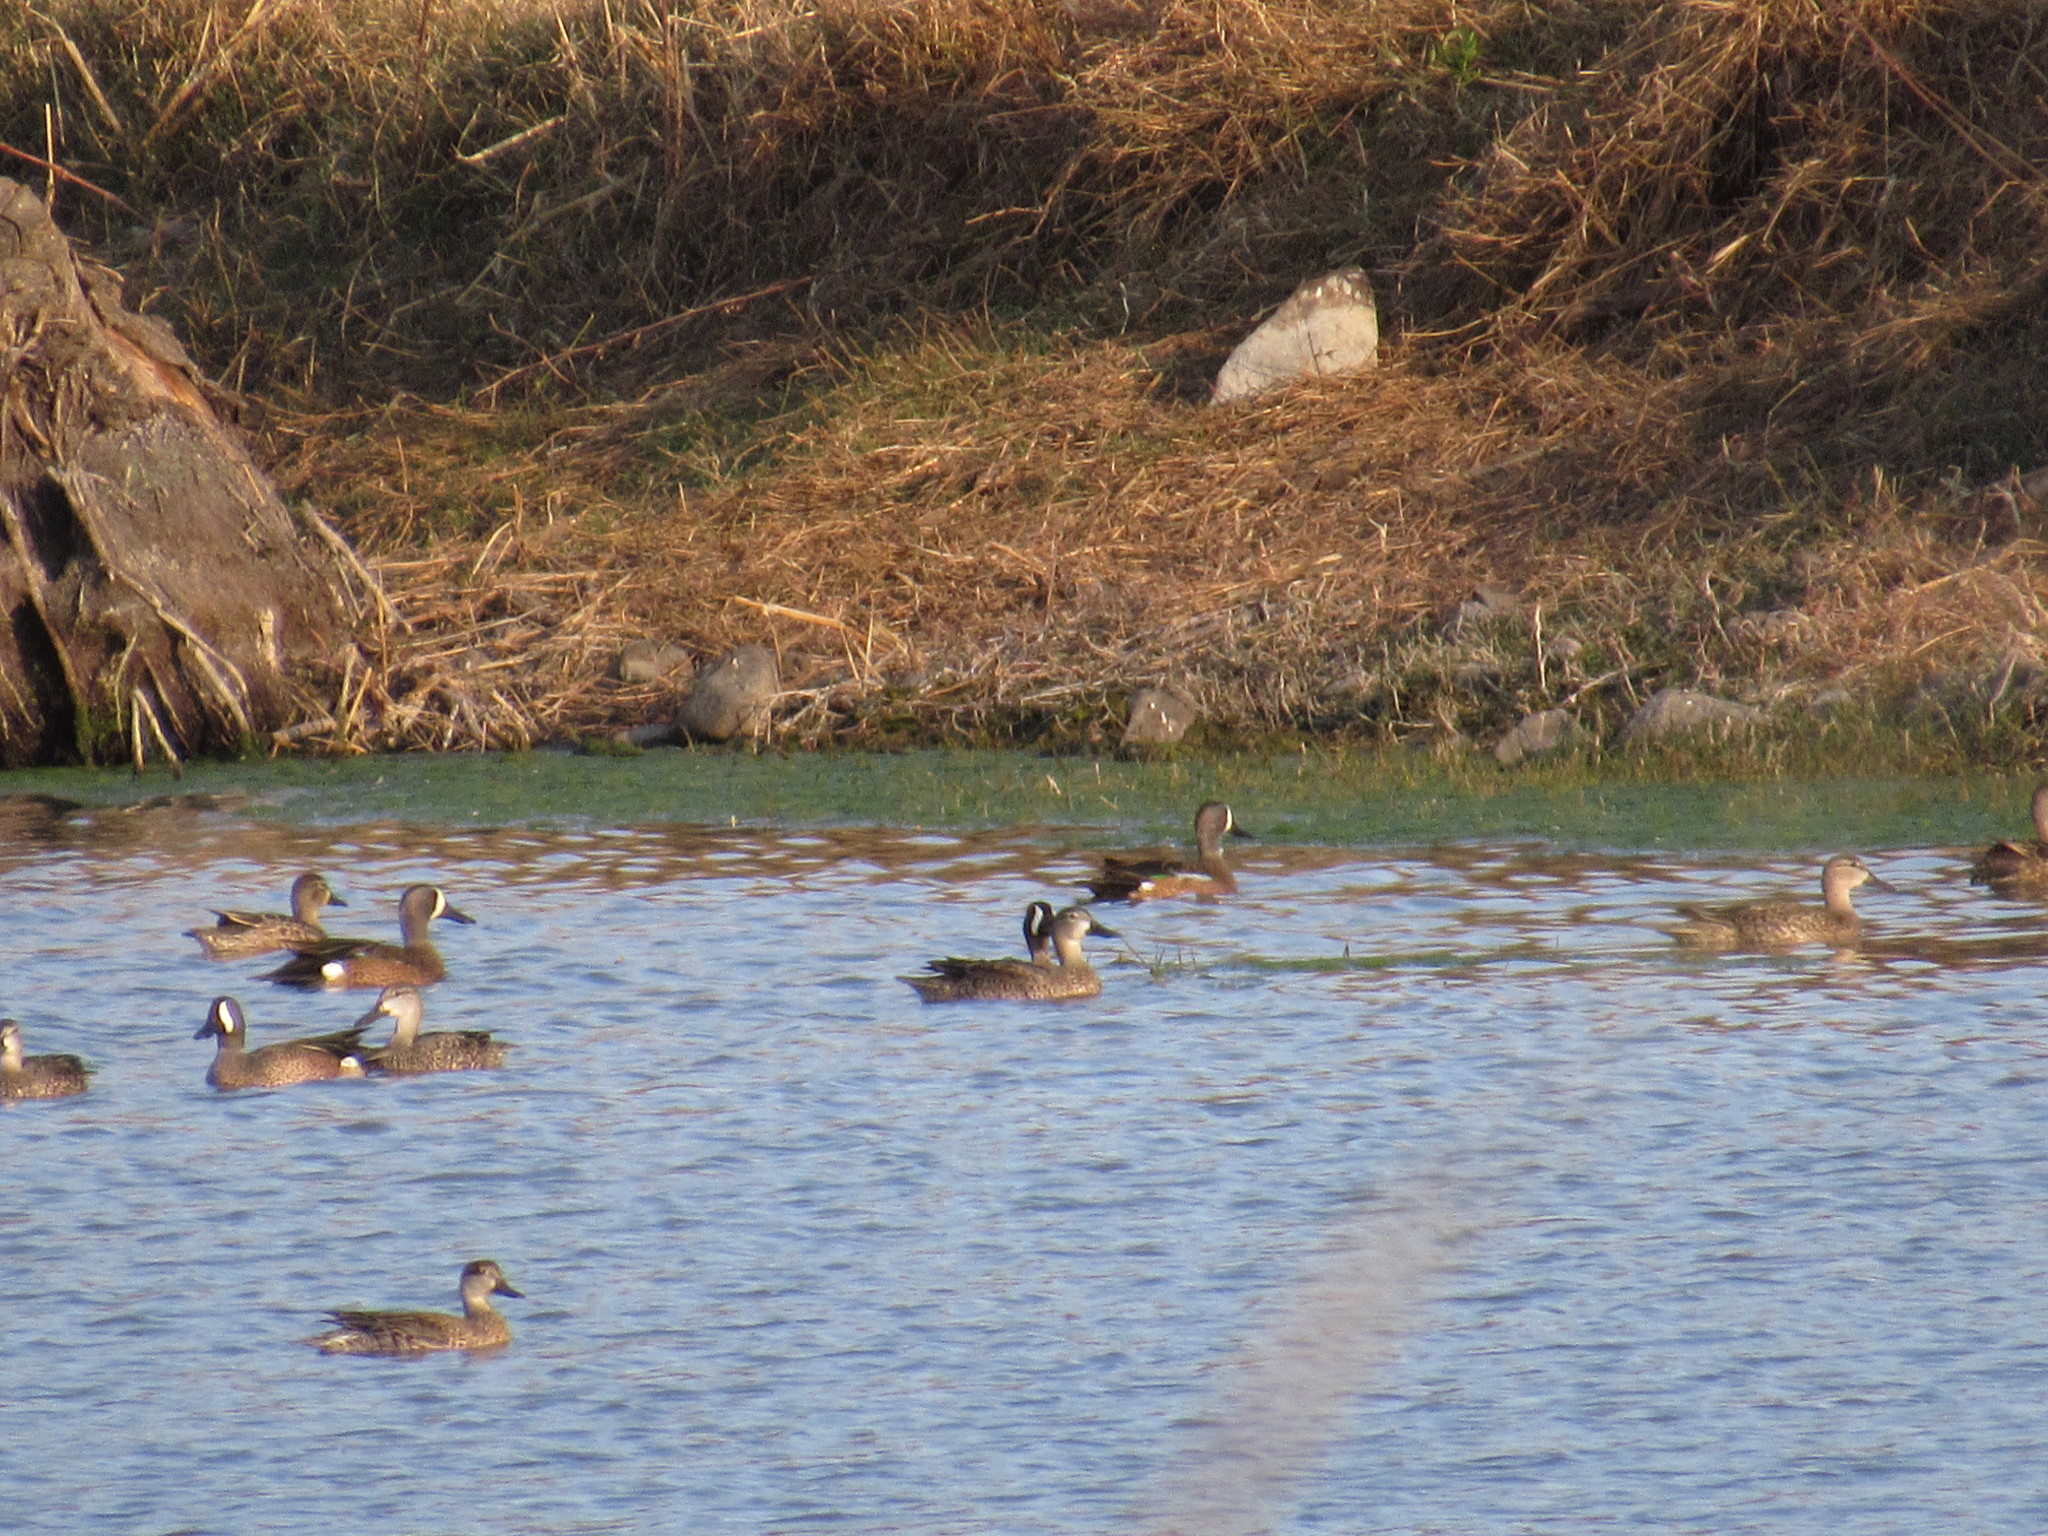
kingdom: Animalia
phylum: Chordata
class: Aves
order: Anseriformes
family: Anatidae
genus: Spatula
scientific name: Spatula discors
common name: Blue-winged teal
